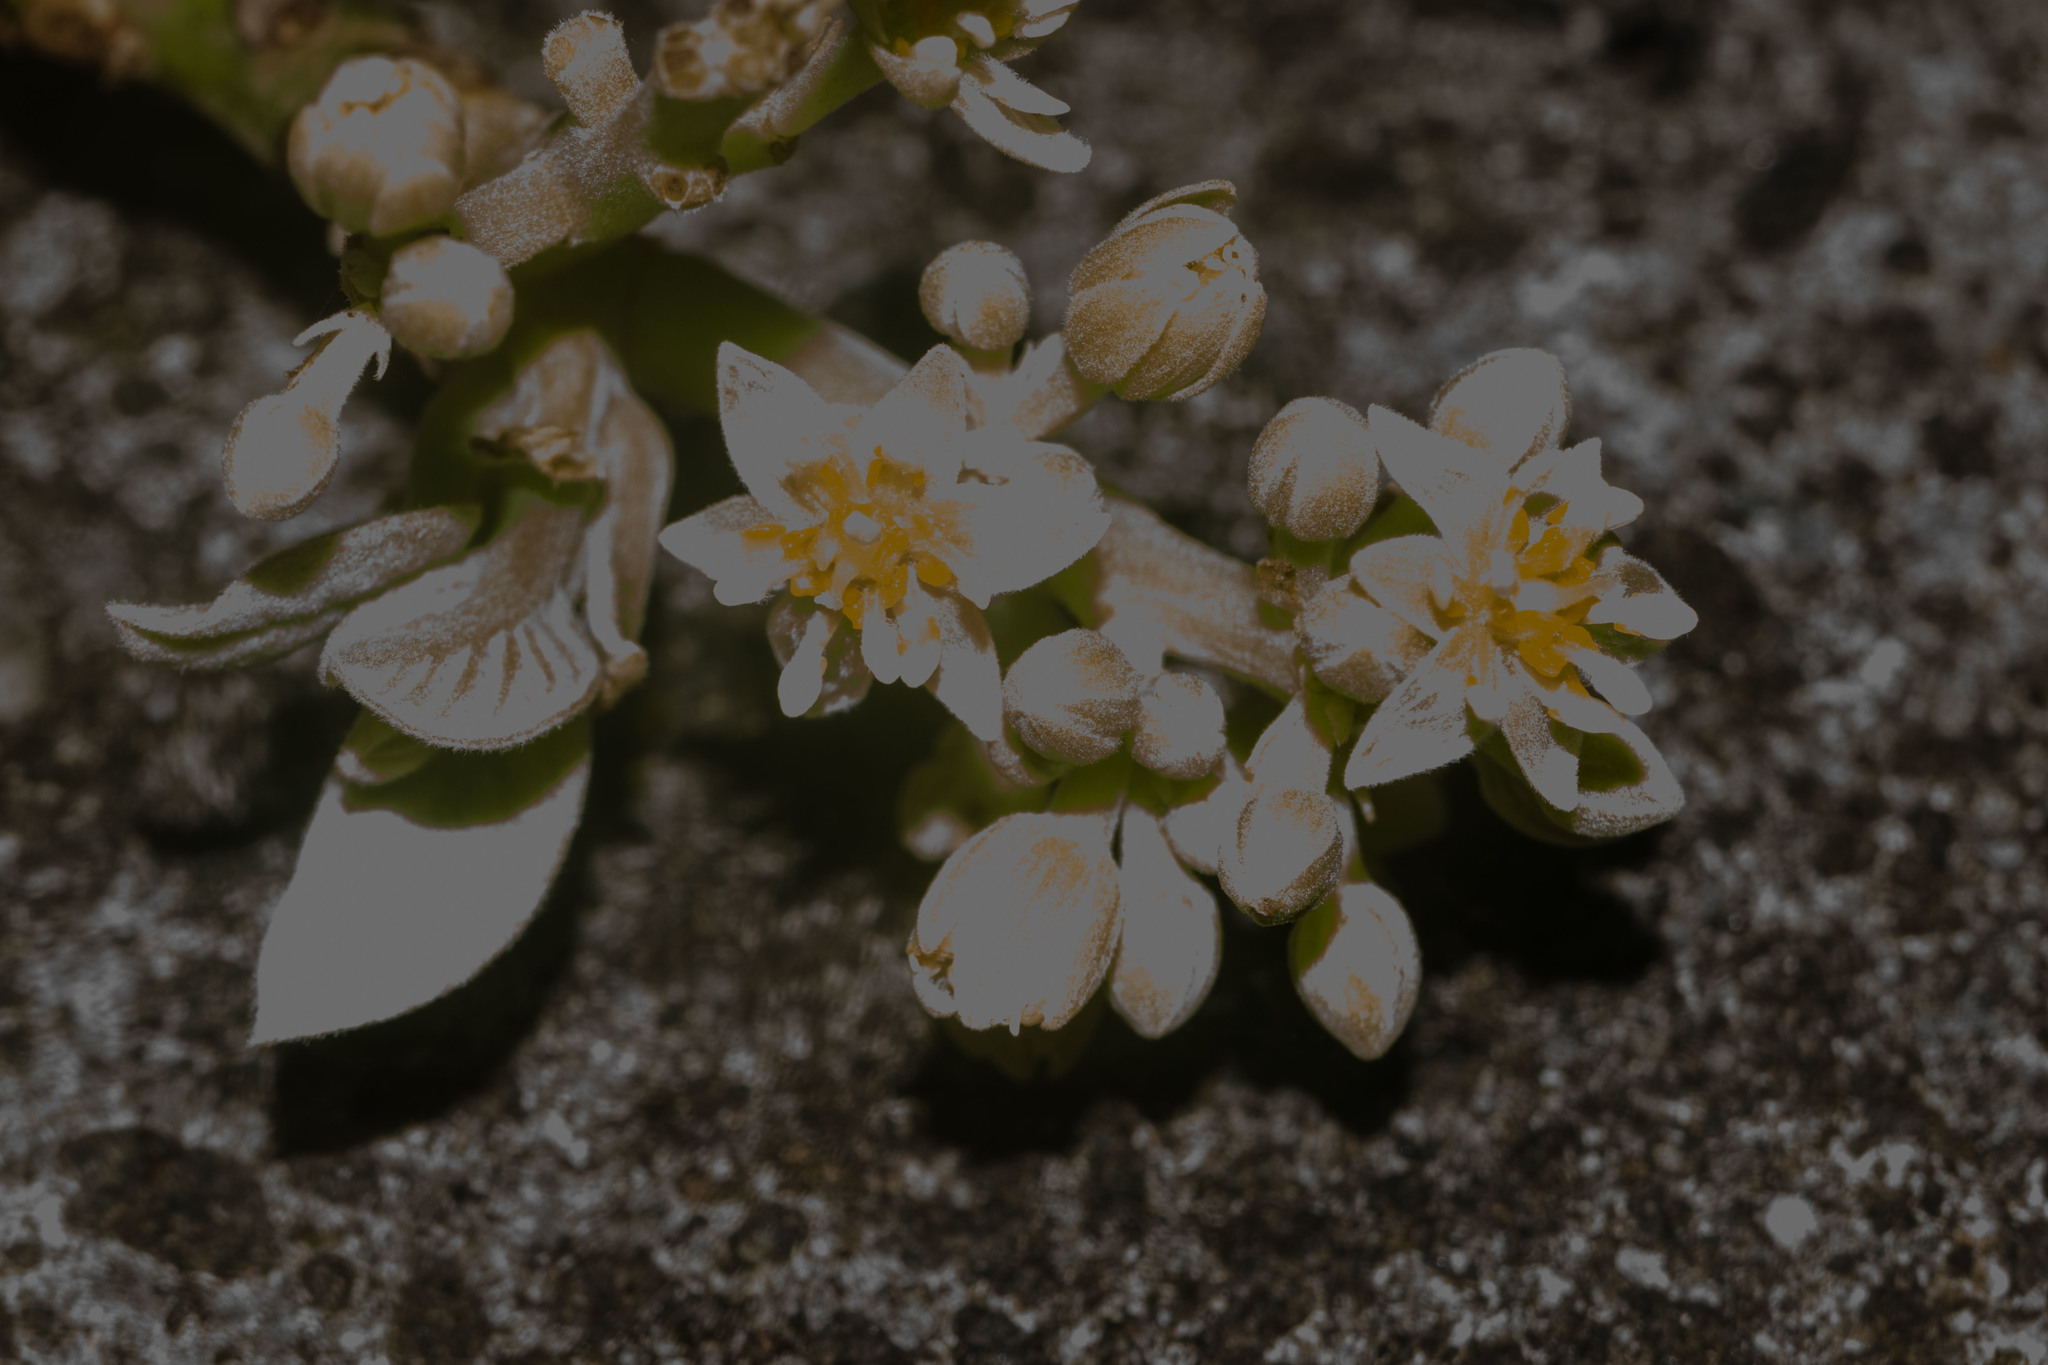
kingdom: Plantae
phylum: Tracheophyta
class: Magnoliopsida
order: Laurales
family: Lauraceae
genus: Persea
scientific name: Persea americana
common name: Avocado
